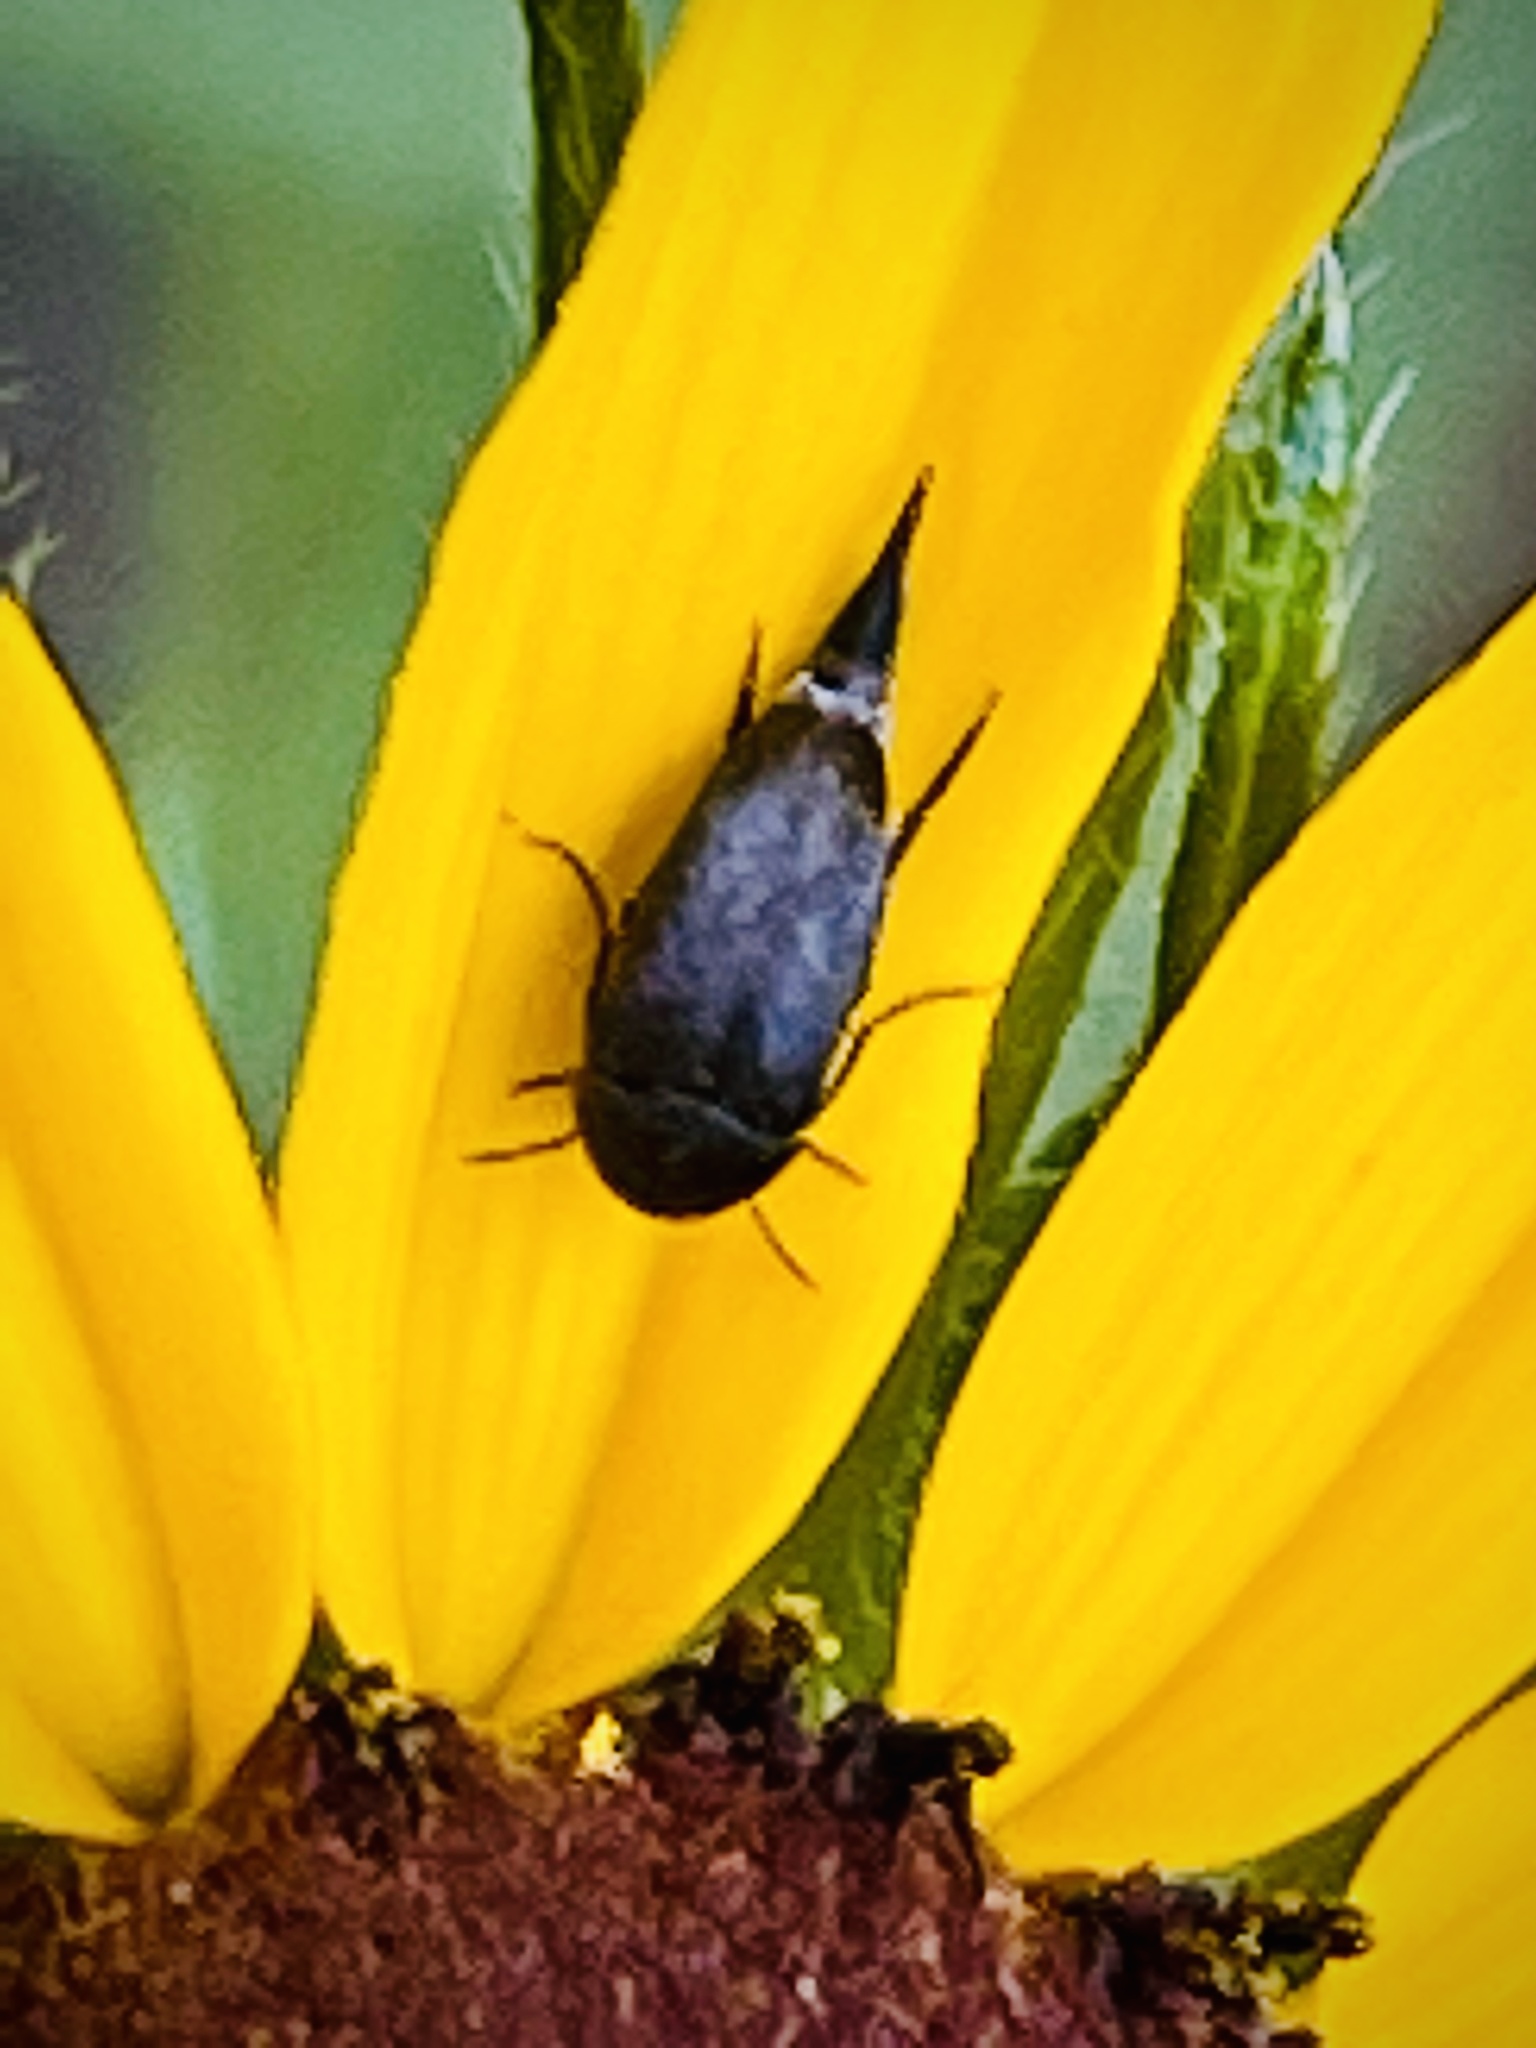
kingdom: Animalia
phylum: Arthropoda
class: Insecta
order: Coleoptera
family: Mordellidae
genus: Mordella
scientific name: Mordella marginata
